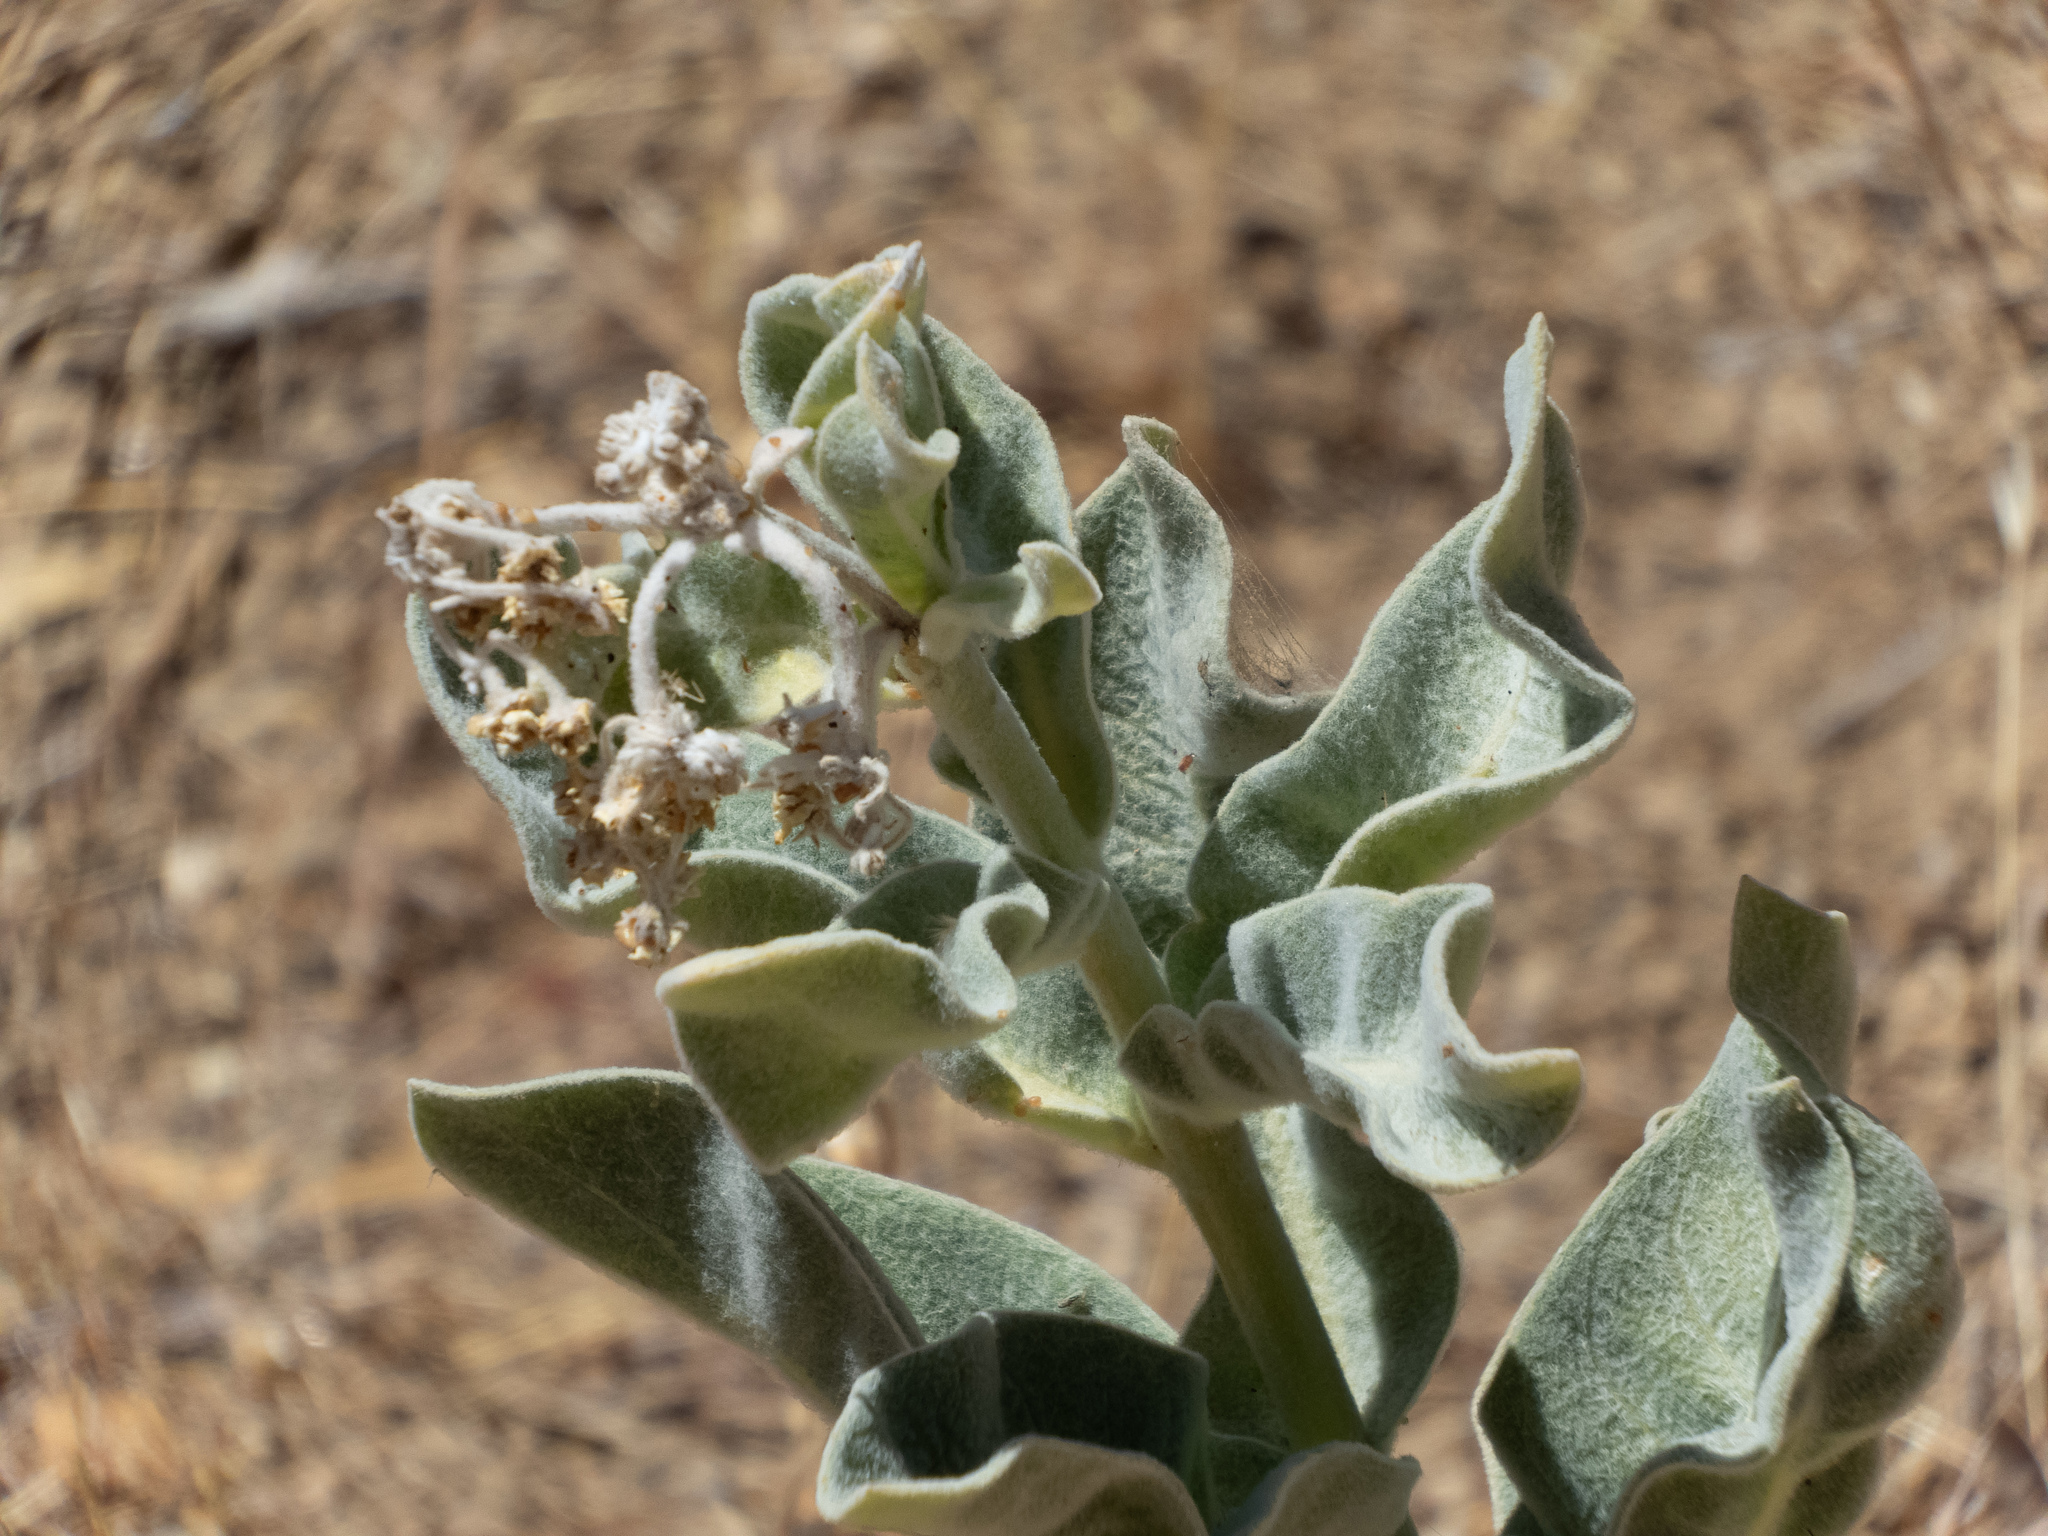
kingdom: Plantae
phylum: Tracheophyta
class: Magnoliopsida
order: Gentianales
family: Apocynaceae
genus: Asclepias
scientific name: Asclepias eriocarpa
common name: Indian milkweed
